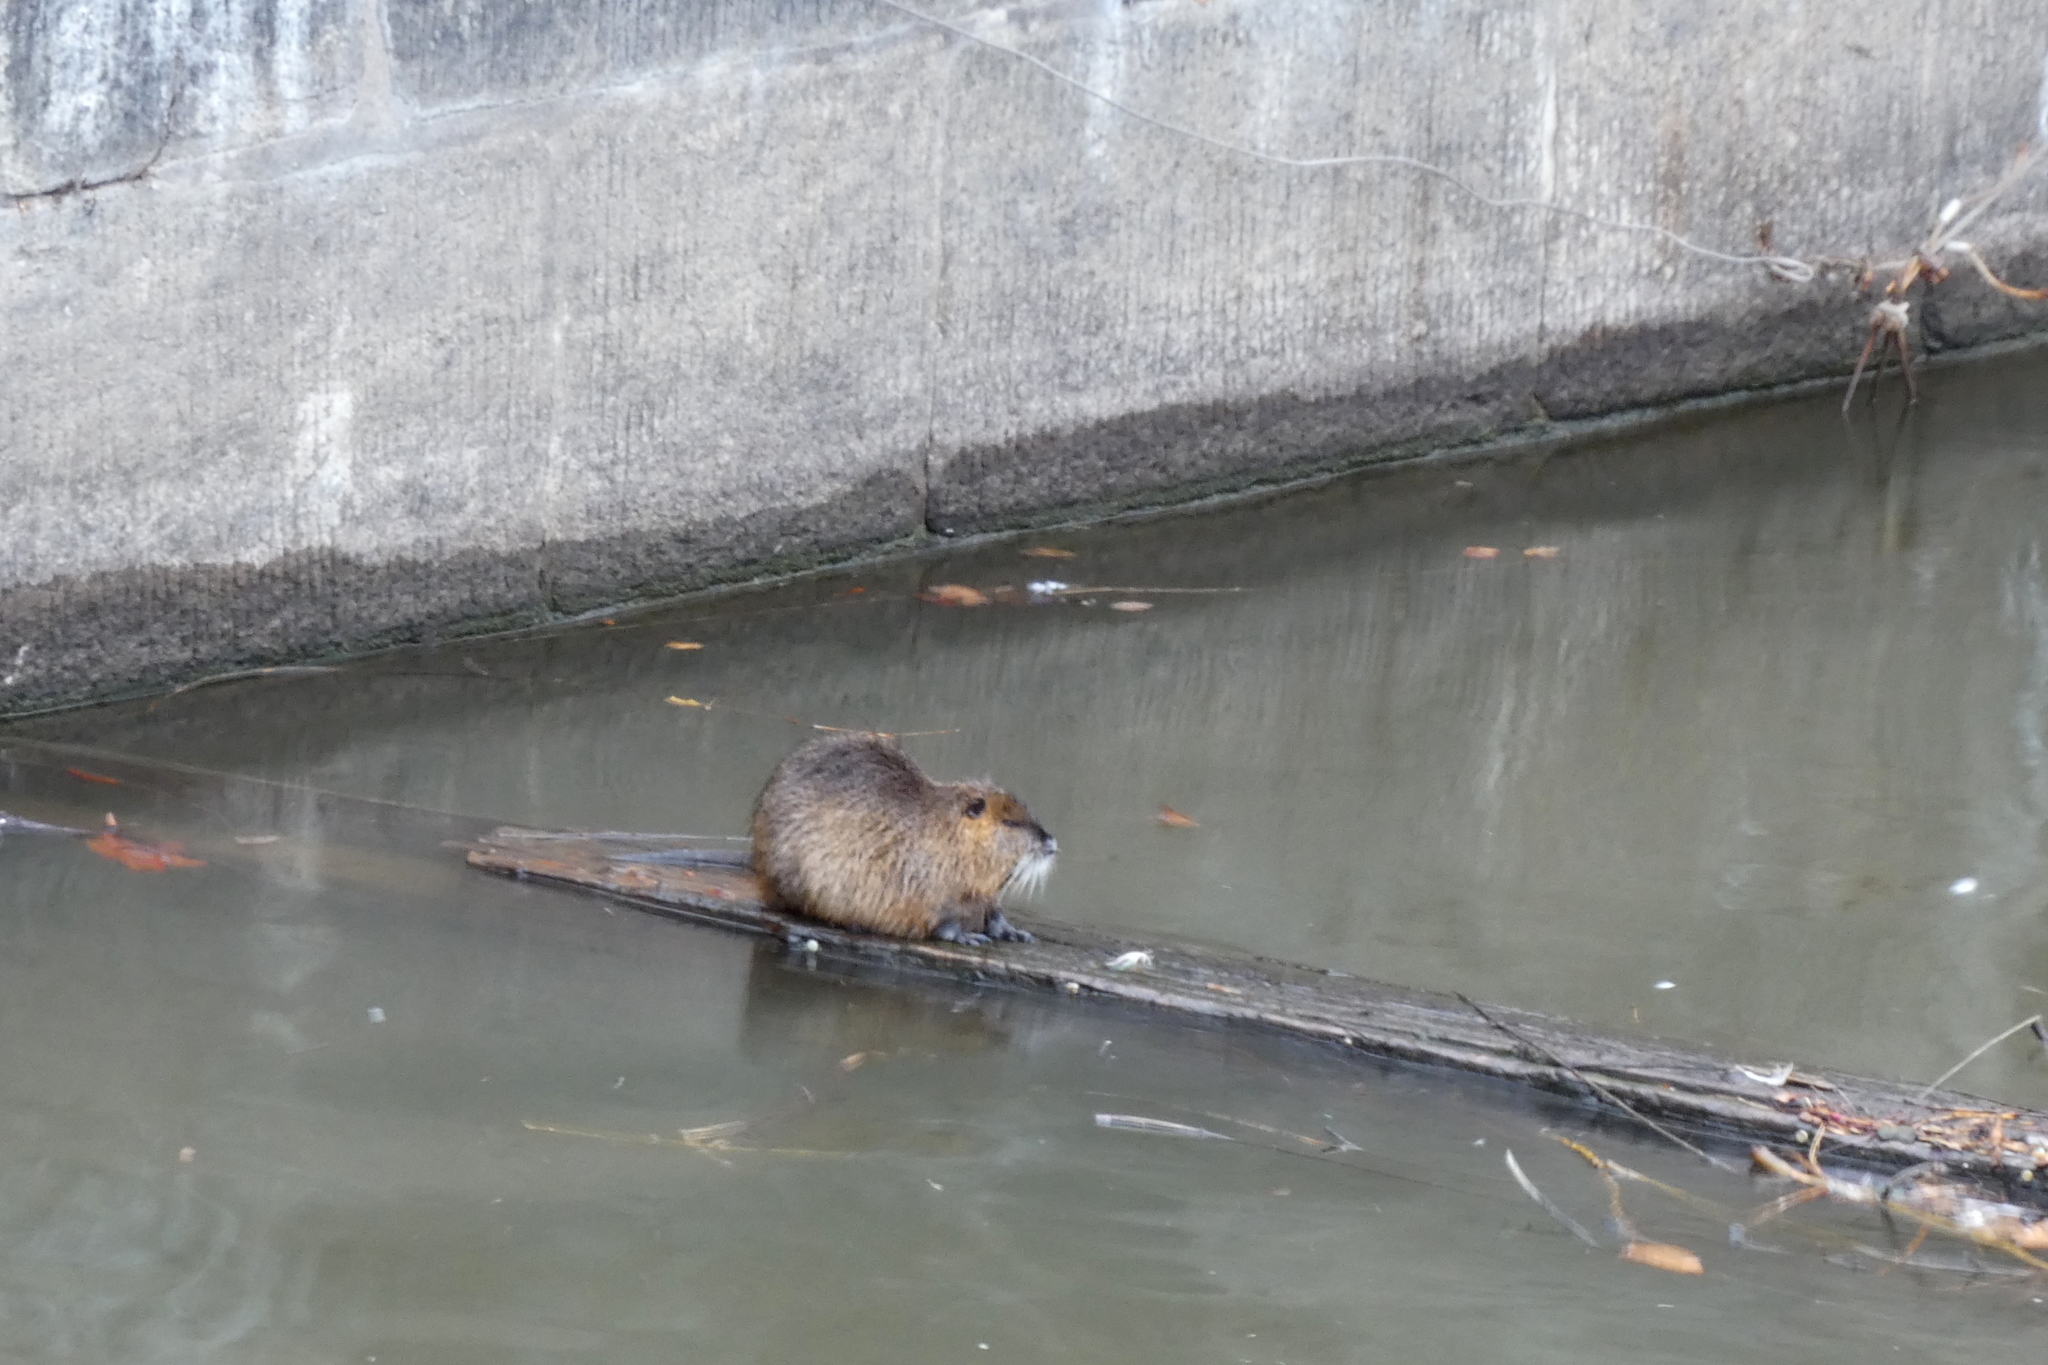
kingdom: Animalia
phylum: Chordata
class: Mammalia
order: Rodentia
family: Myocastoridae
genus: Myocastor
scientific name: Myocastor coypus
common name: Coypu
